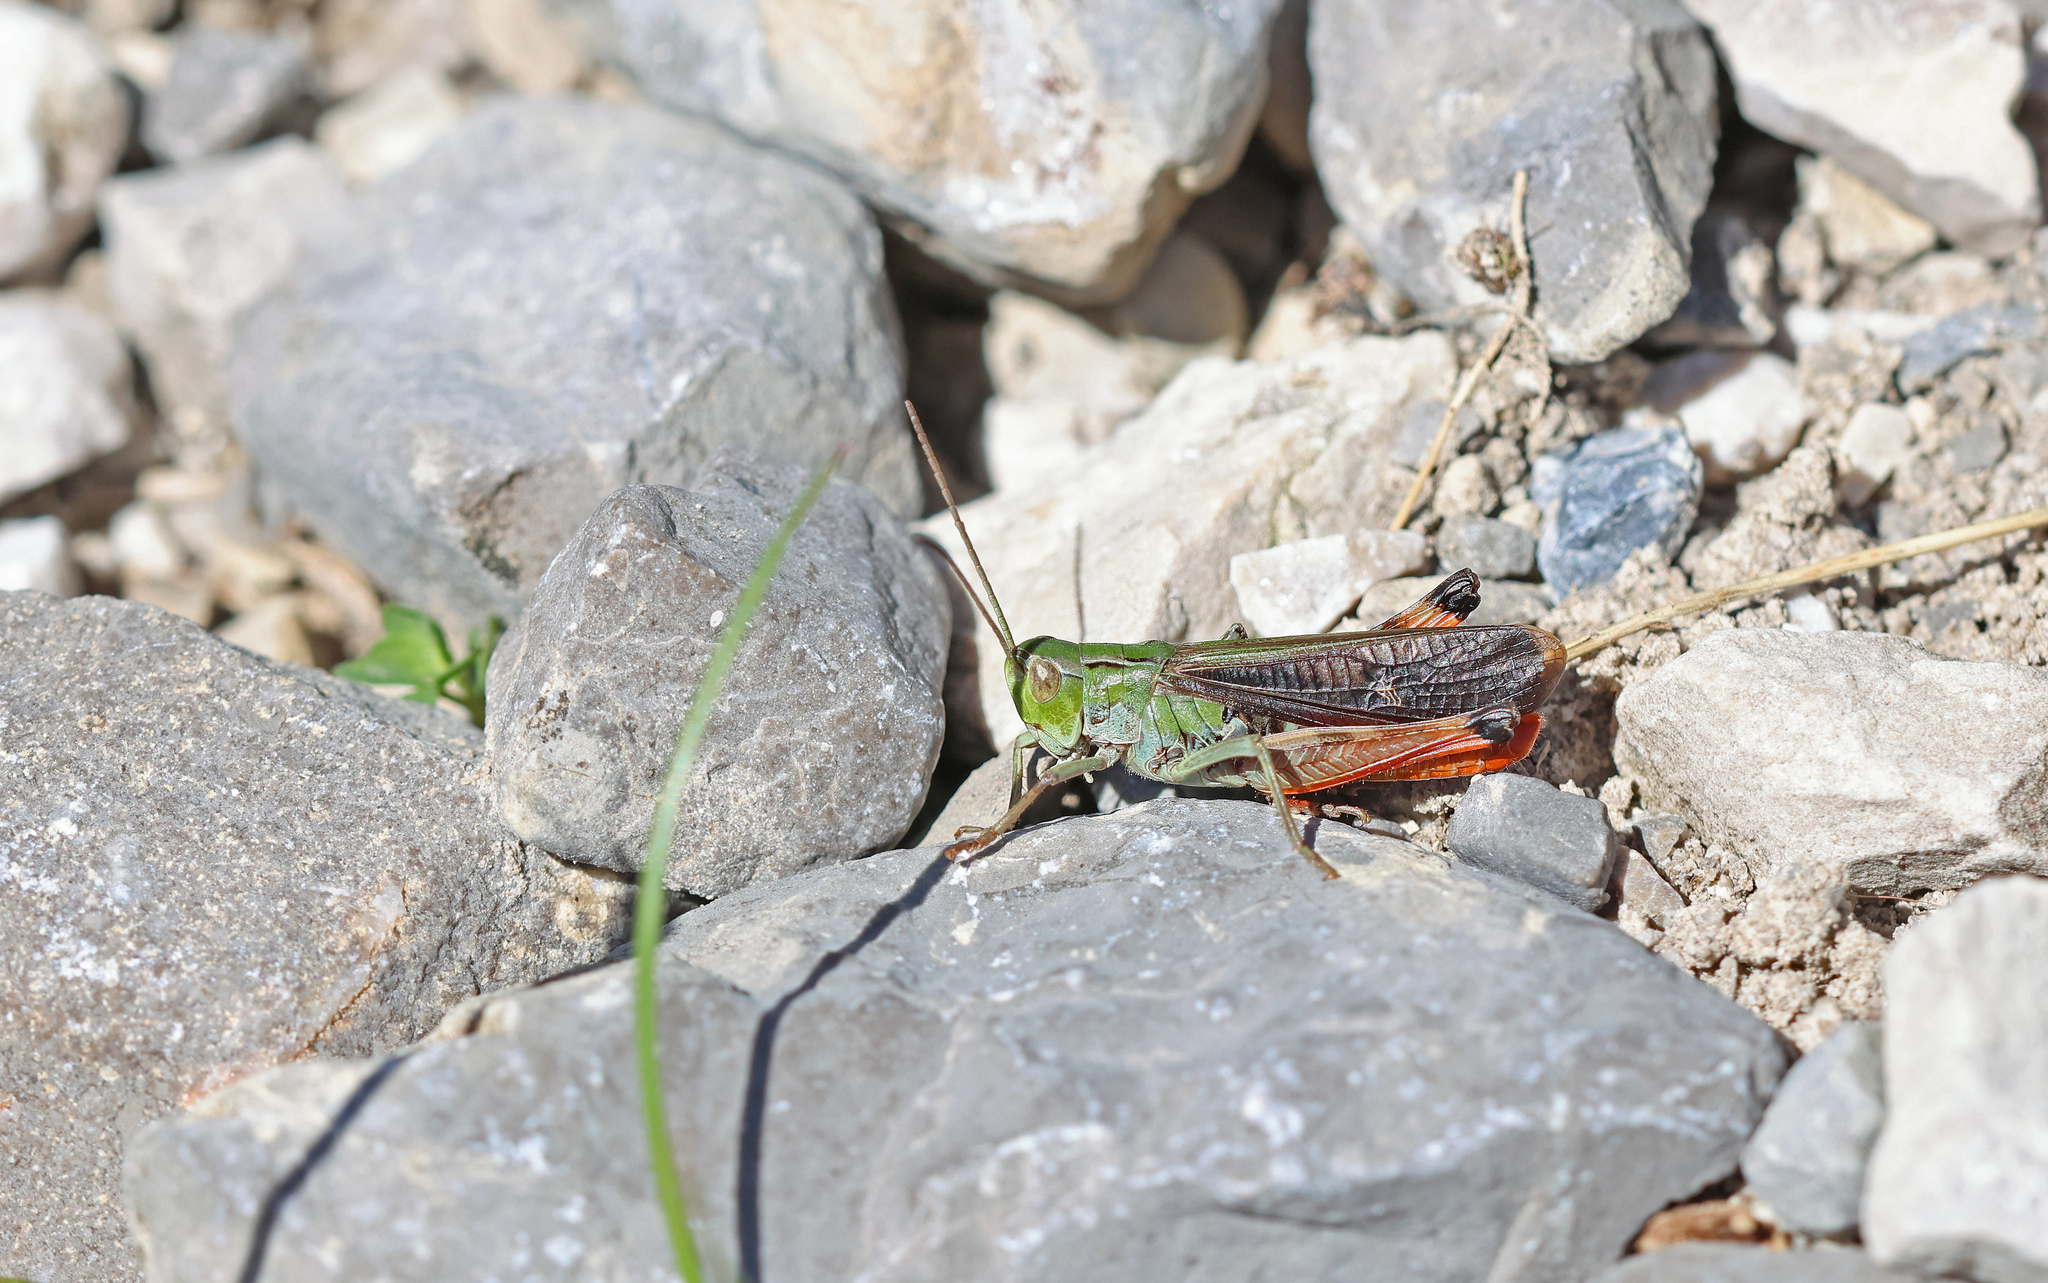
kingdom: Animalia
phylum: Arthropoda
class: Insecta
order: Orthoptera
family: Acrididae
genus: Stenobothrus
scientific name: Stenobothrus rubicundulus
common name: Wing-buzzing grasshopper
